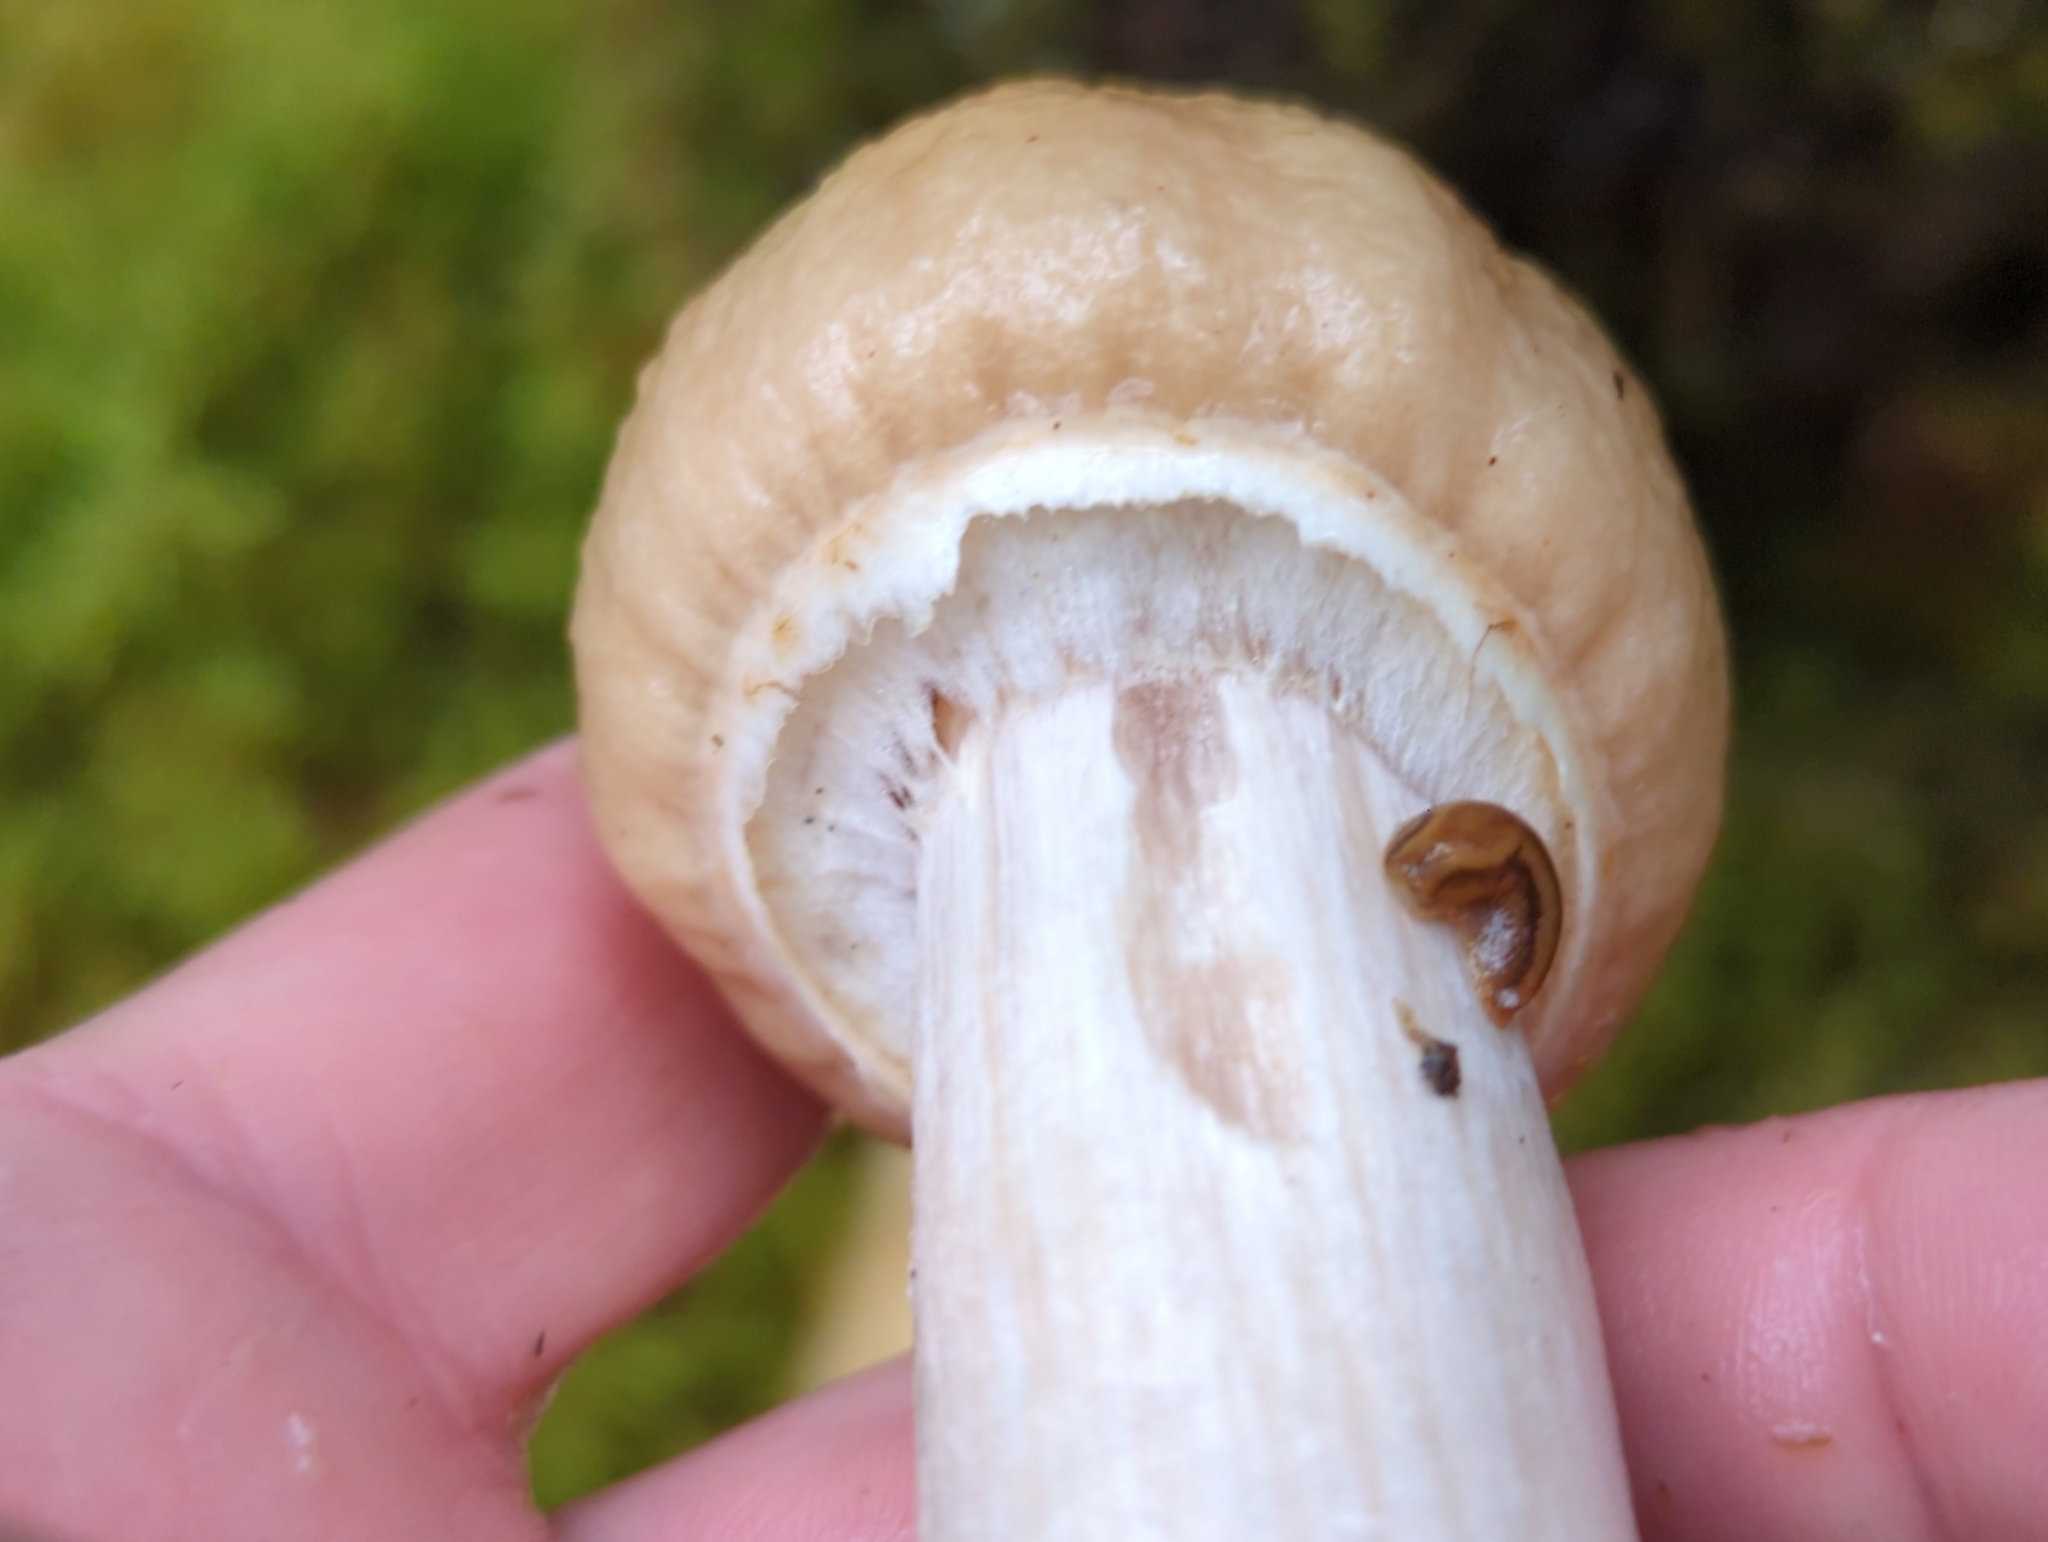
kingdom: Fungi
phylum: Basidiomycota
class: Agaricomycetes
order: Agaricales
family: Cortinariaceae
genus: Cortinarius
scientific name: Cortinarius caperatus
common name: The gypsy
